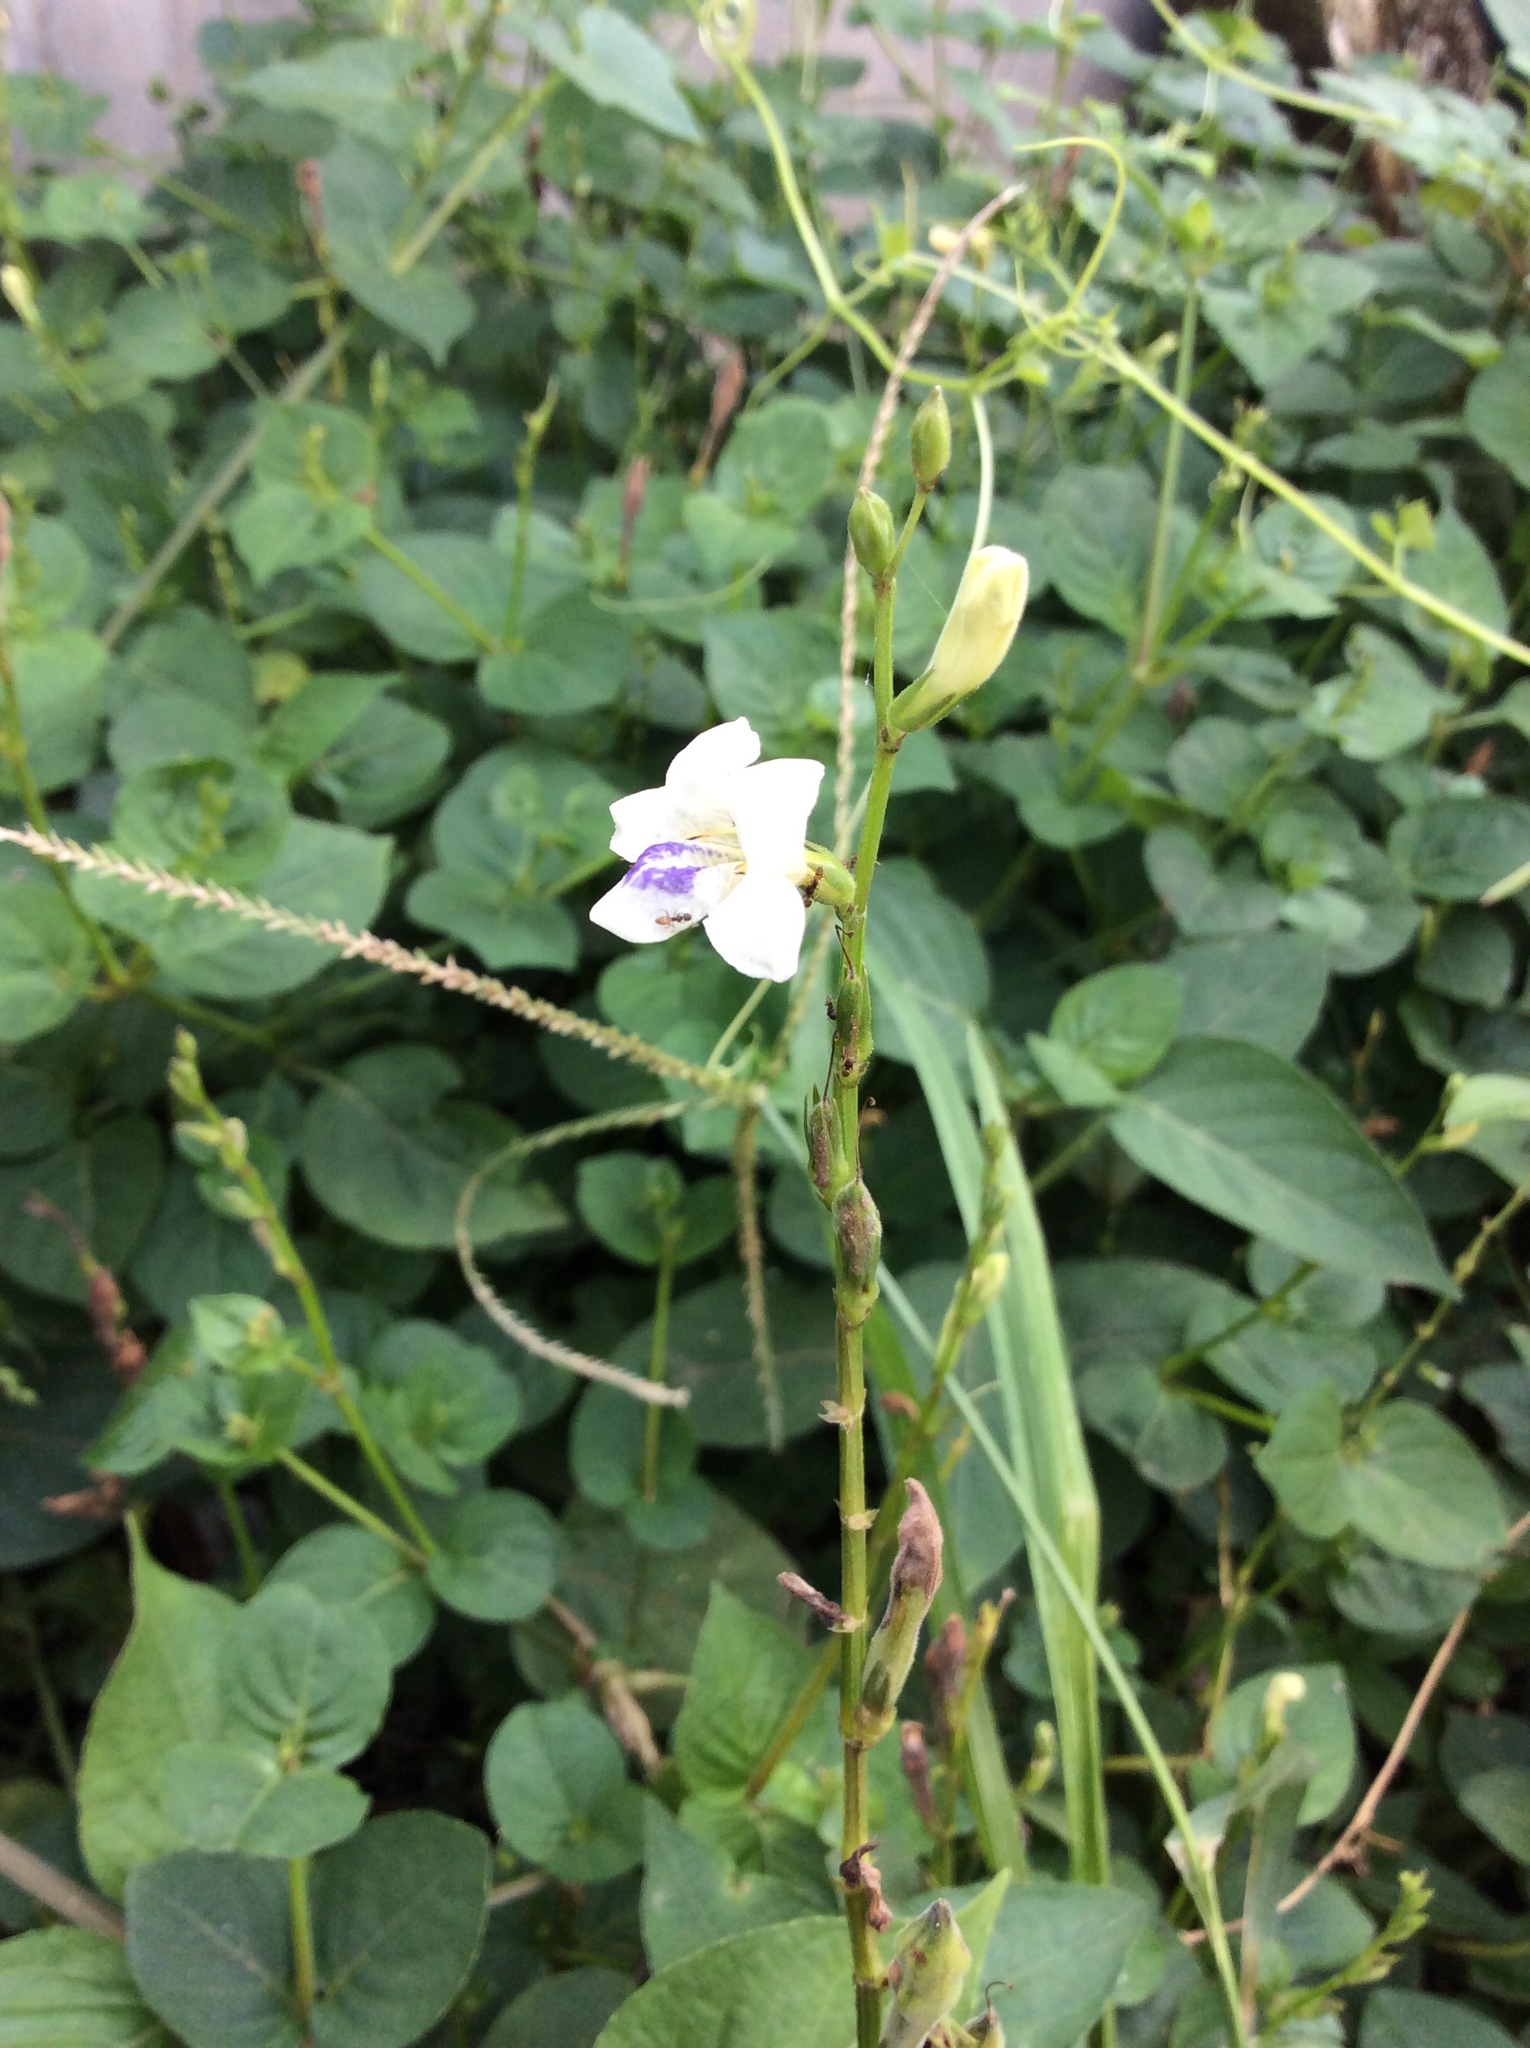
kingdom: Plantae
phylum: Tracheophyta
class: Magnoliopsida
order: Lamiales
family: Acanthaceae
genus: Asystasia
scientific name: Asystasia intrusa
